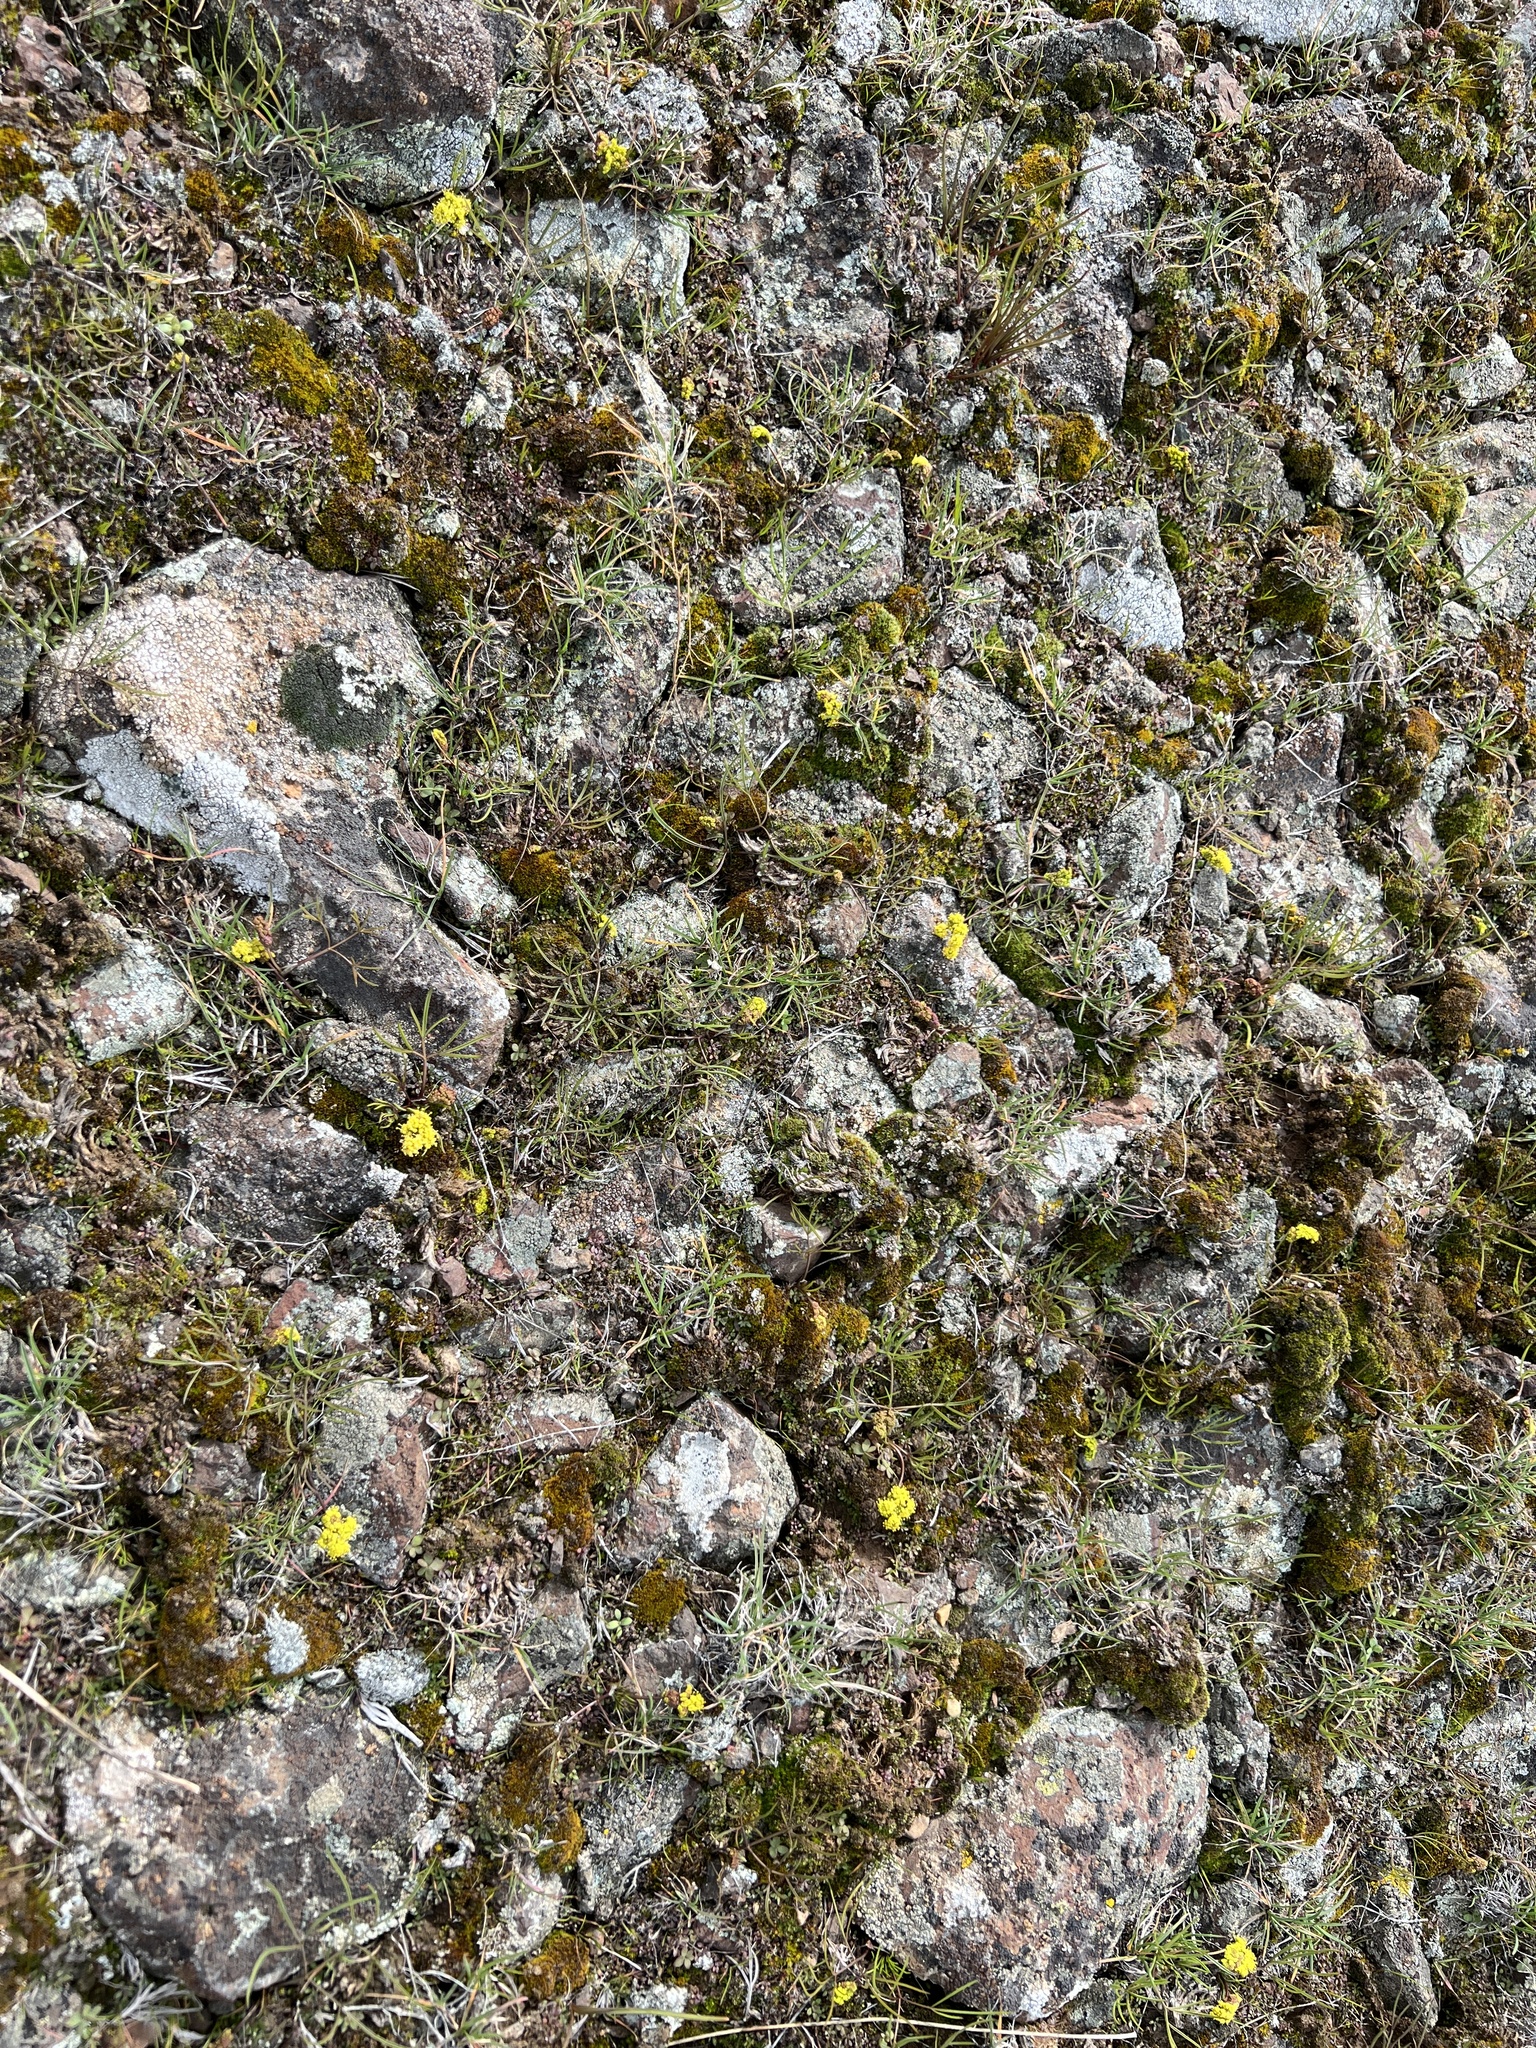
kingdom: Plantae
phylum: Tracheophyta
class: Magnoliopsida
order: Apiales
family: Apiaceae
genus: Lomatium
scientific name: Lomatium farinosum
